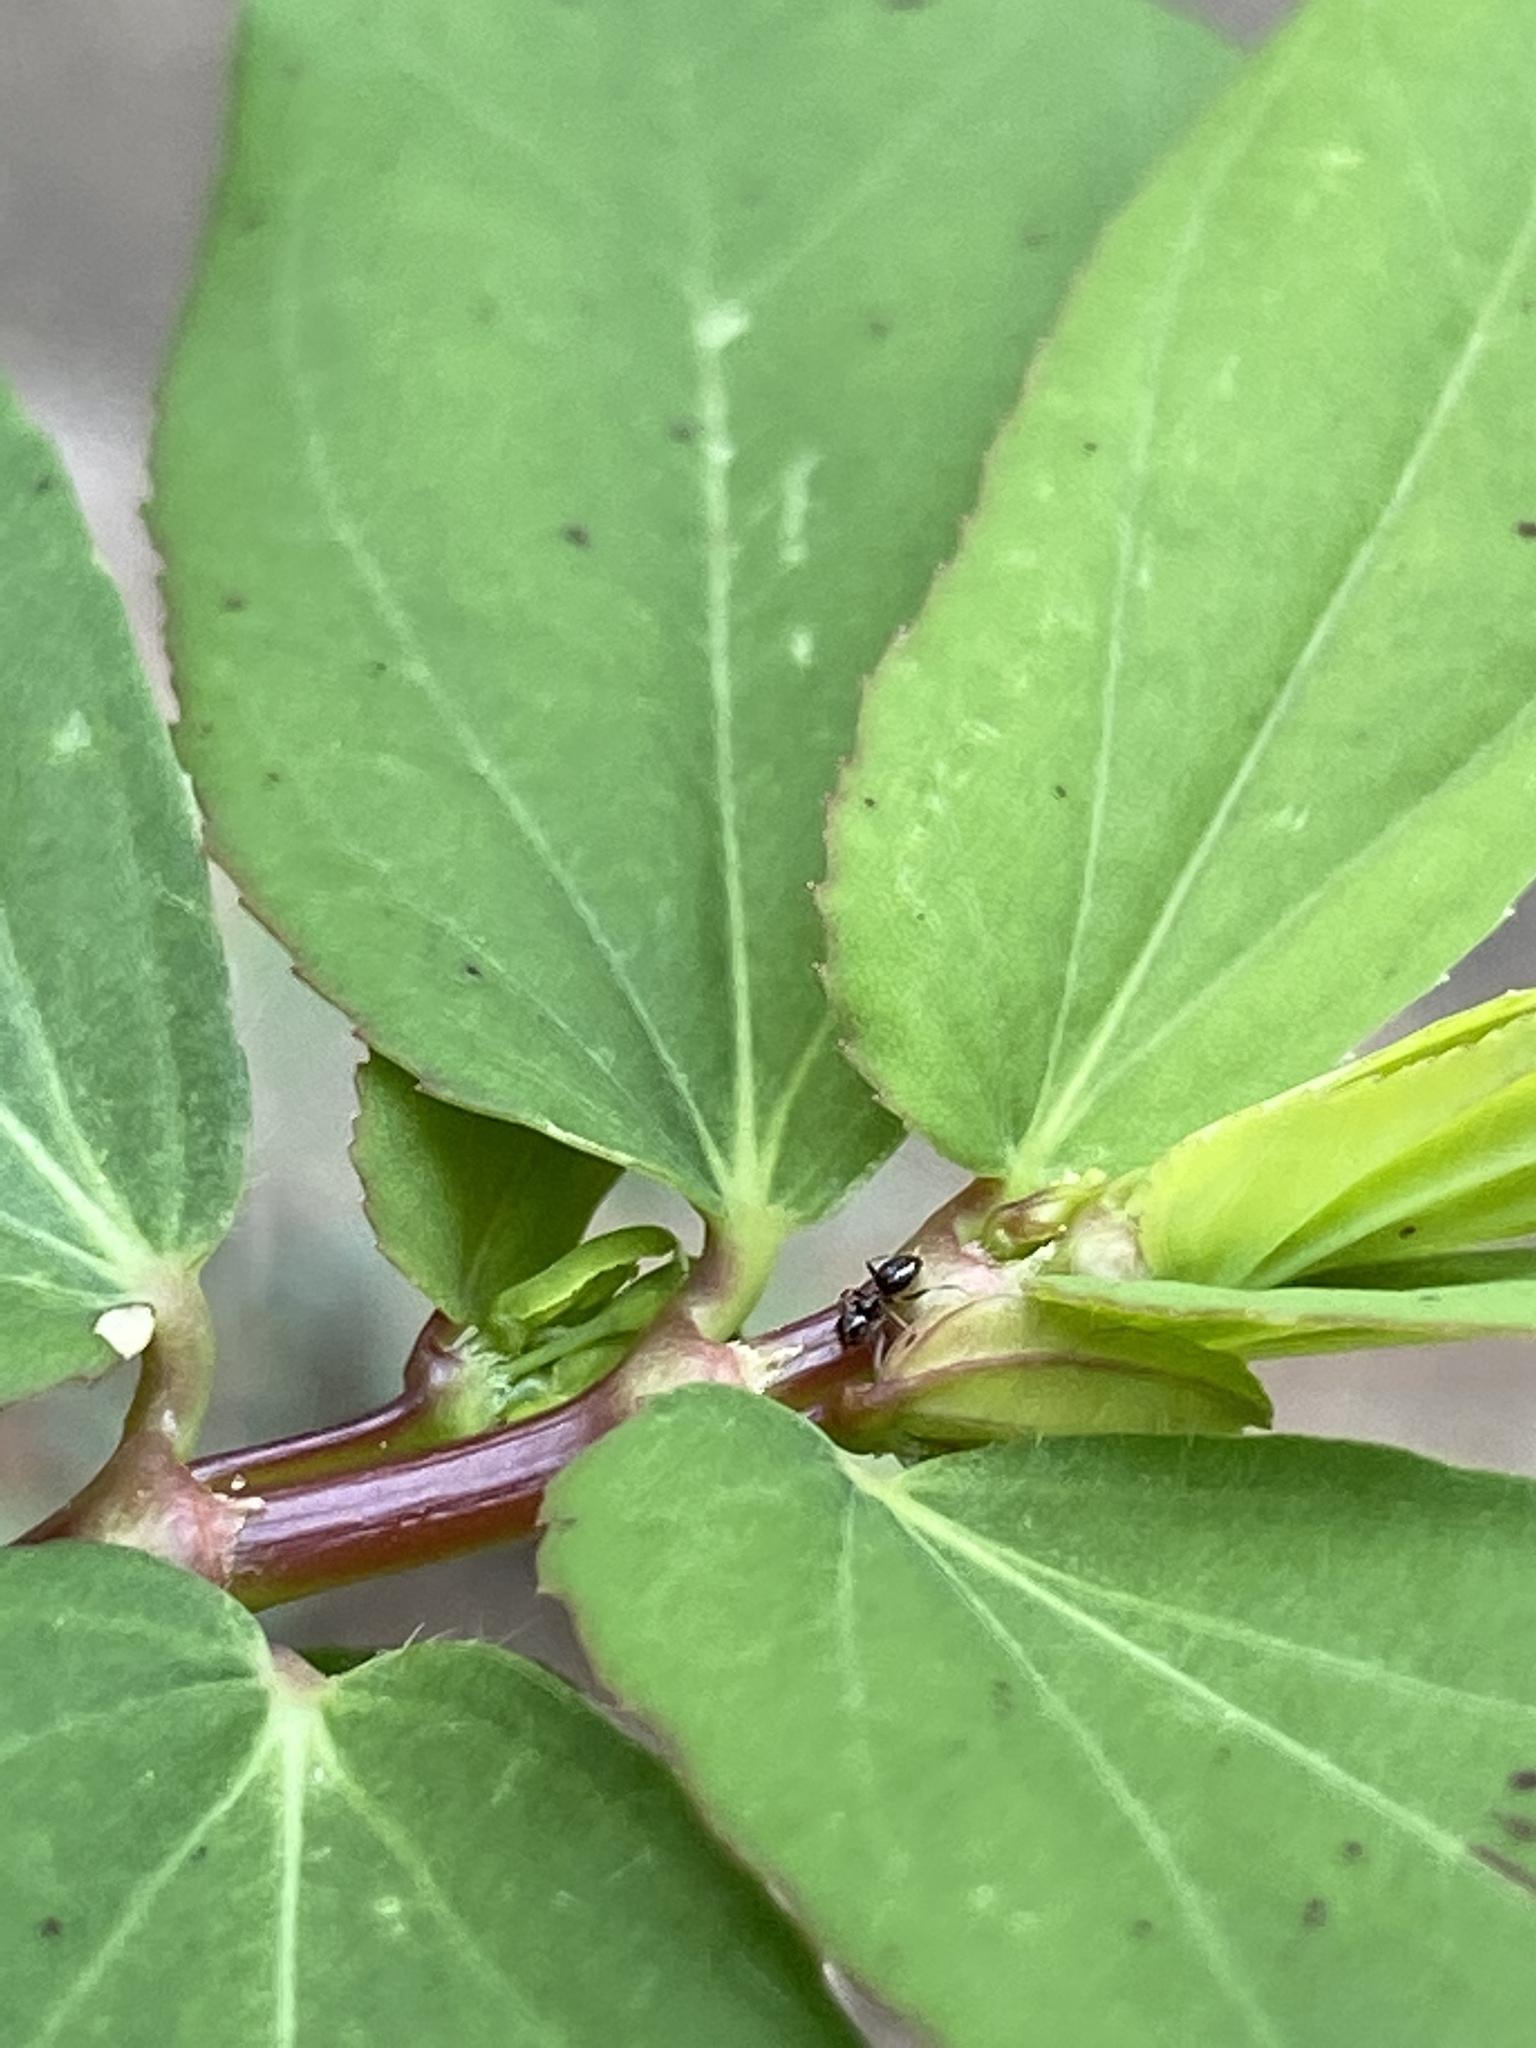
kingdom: Animalia
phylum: Arthropoda
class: Insecta
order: Hymenoptera
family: Formicidae
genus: Brachymyrmex
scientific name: Brachymyrmex patagonicus
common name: Dark rover ant
